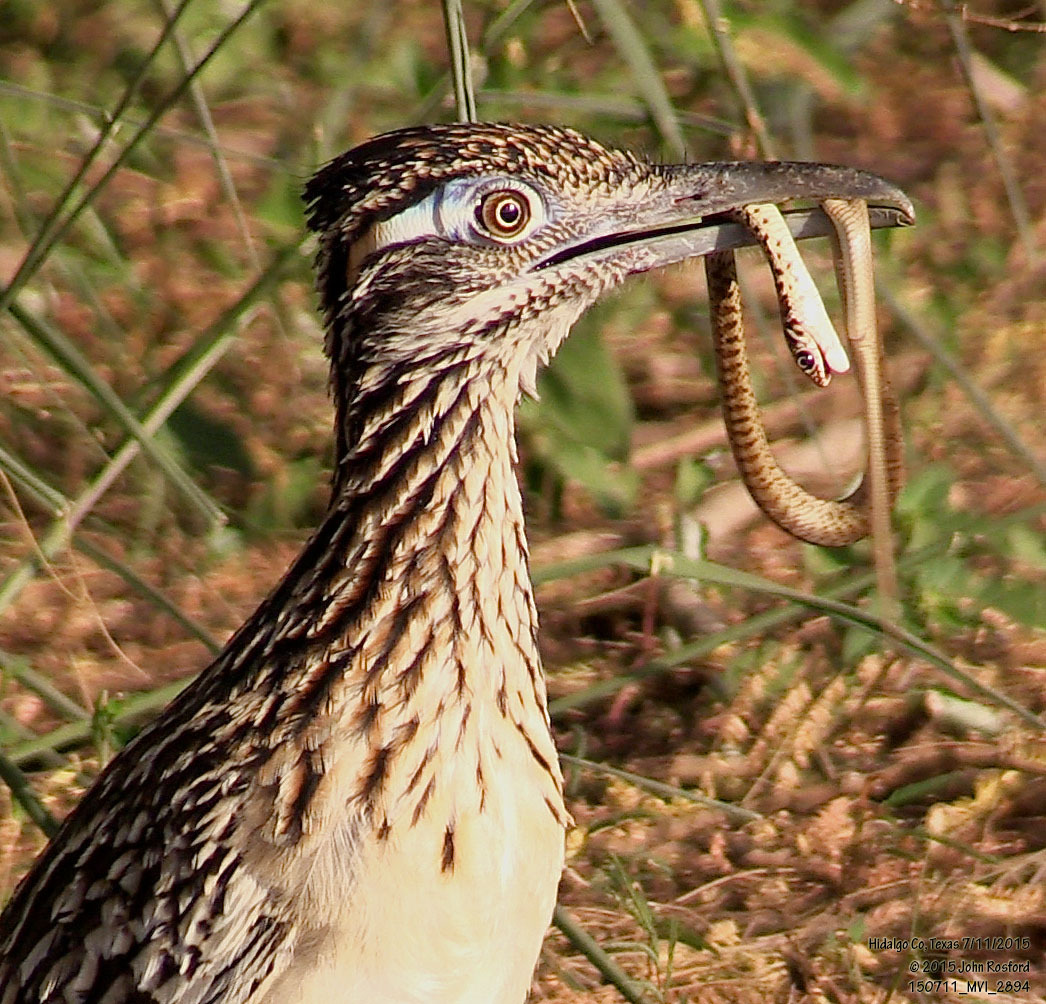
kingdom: Animalia
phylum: Chordata
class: Aves
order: Cuculiformes
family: Cuculidae
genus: Geococcyx
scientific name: Geococcyx californianus
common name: Greater roadrunner
